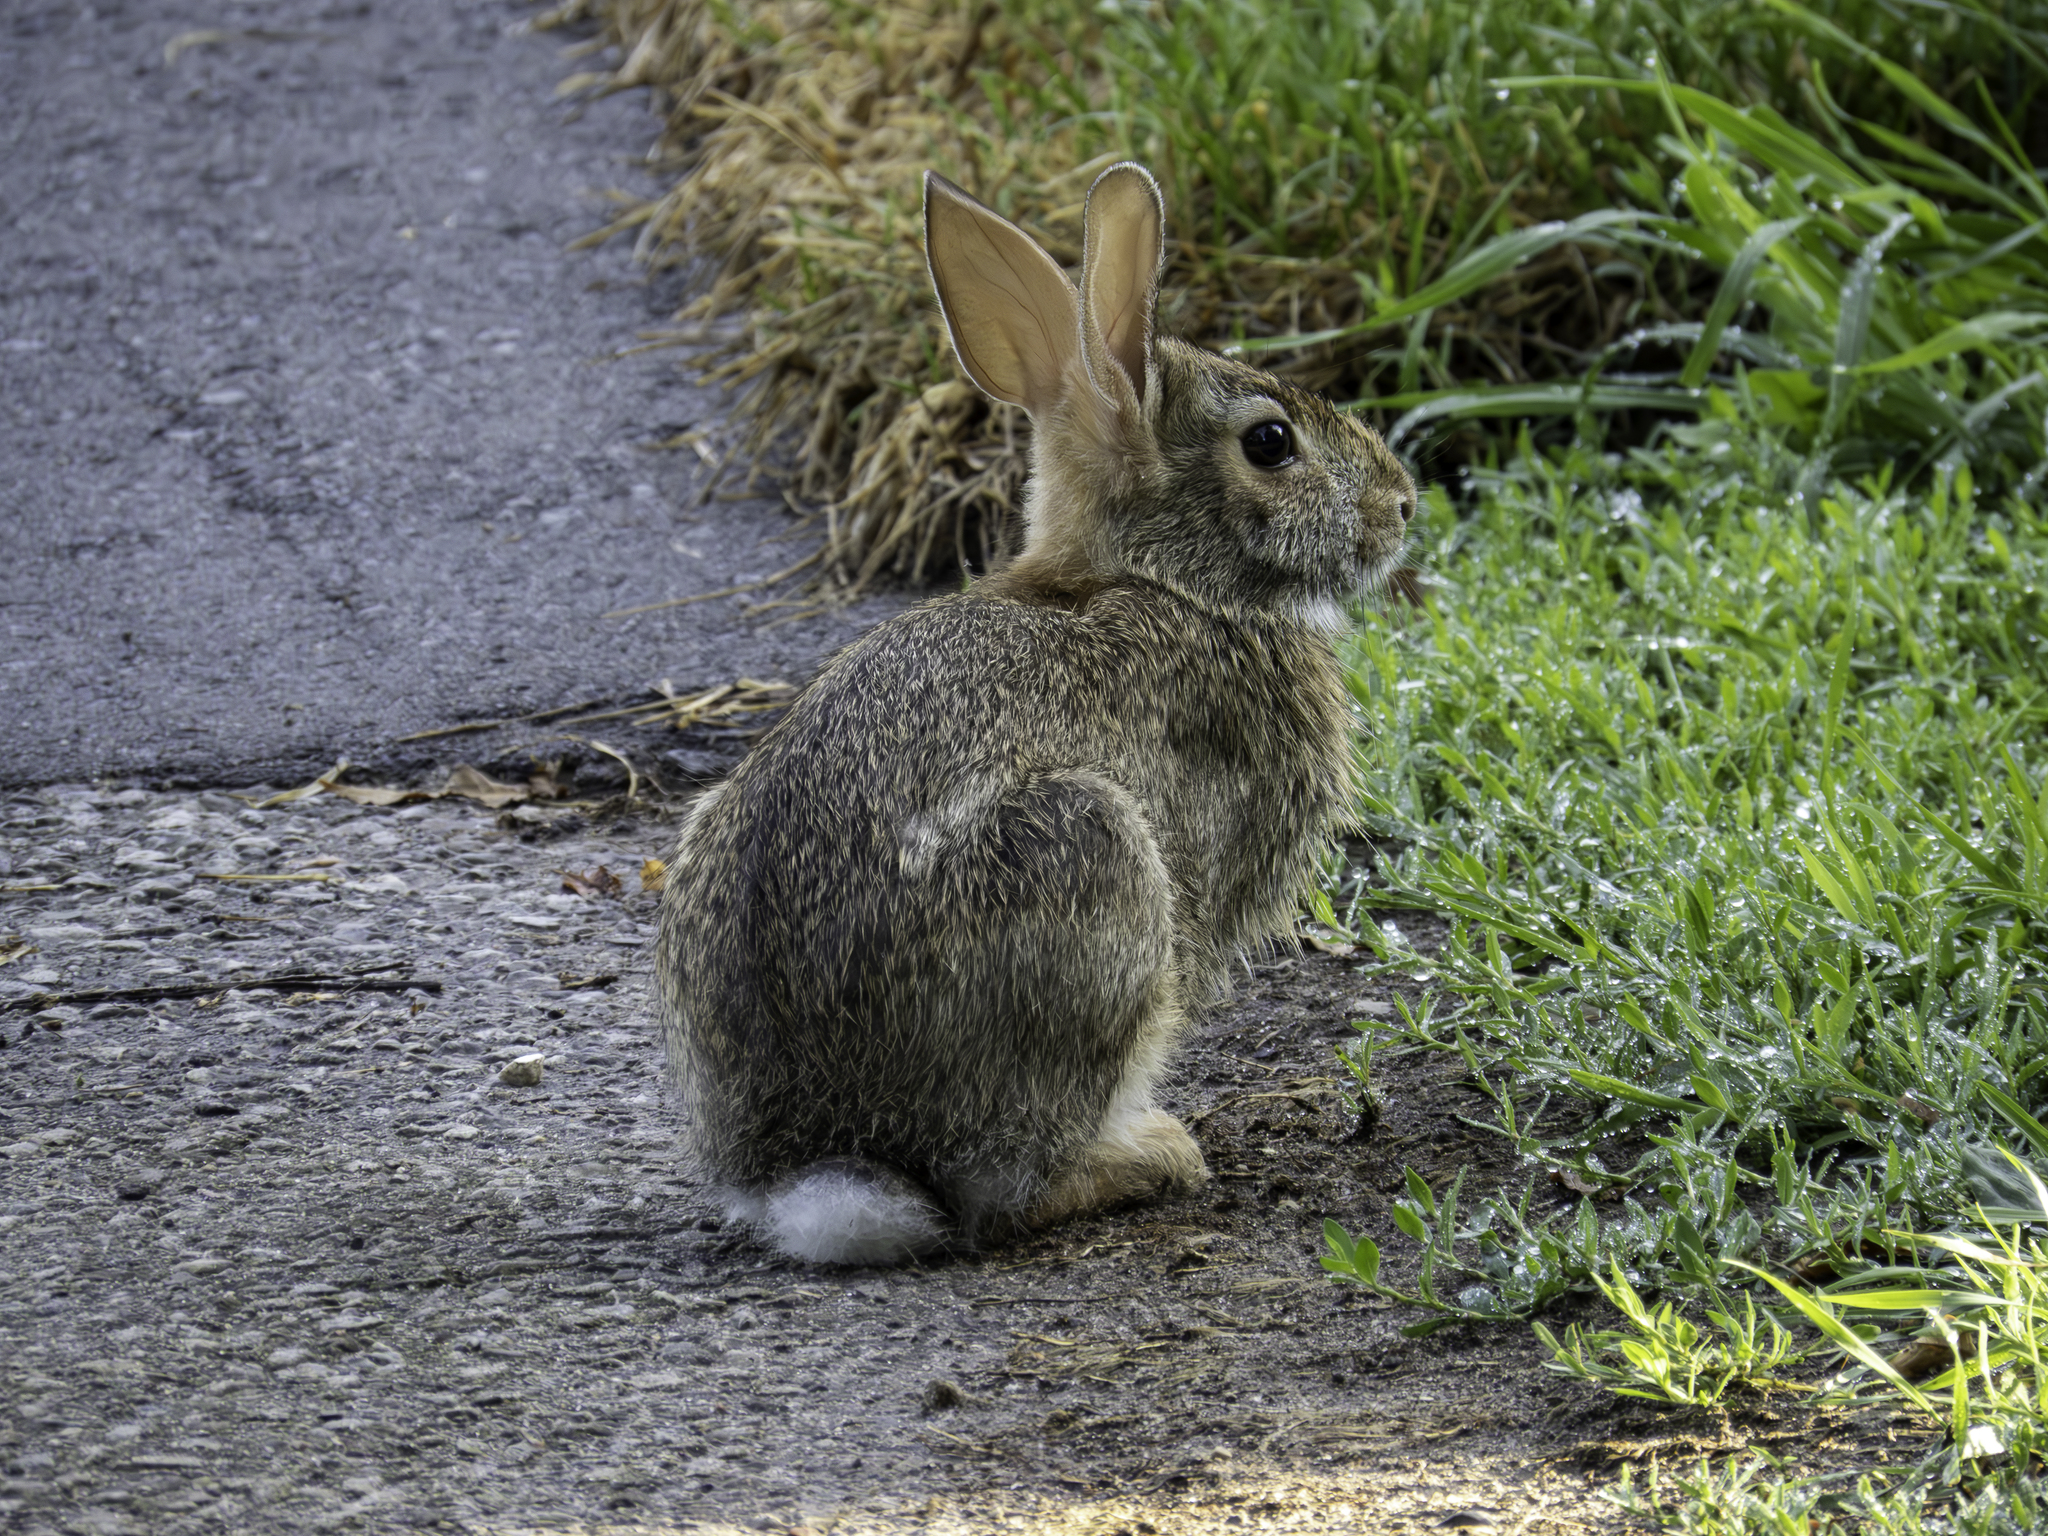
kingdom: Animalia
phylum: Chordata
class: Mammalia
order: Lagomorpha
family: Leporidae
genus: Sylvilagus
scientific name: Sylvilagus floridanus
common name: Eastern cottontail
